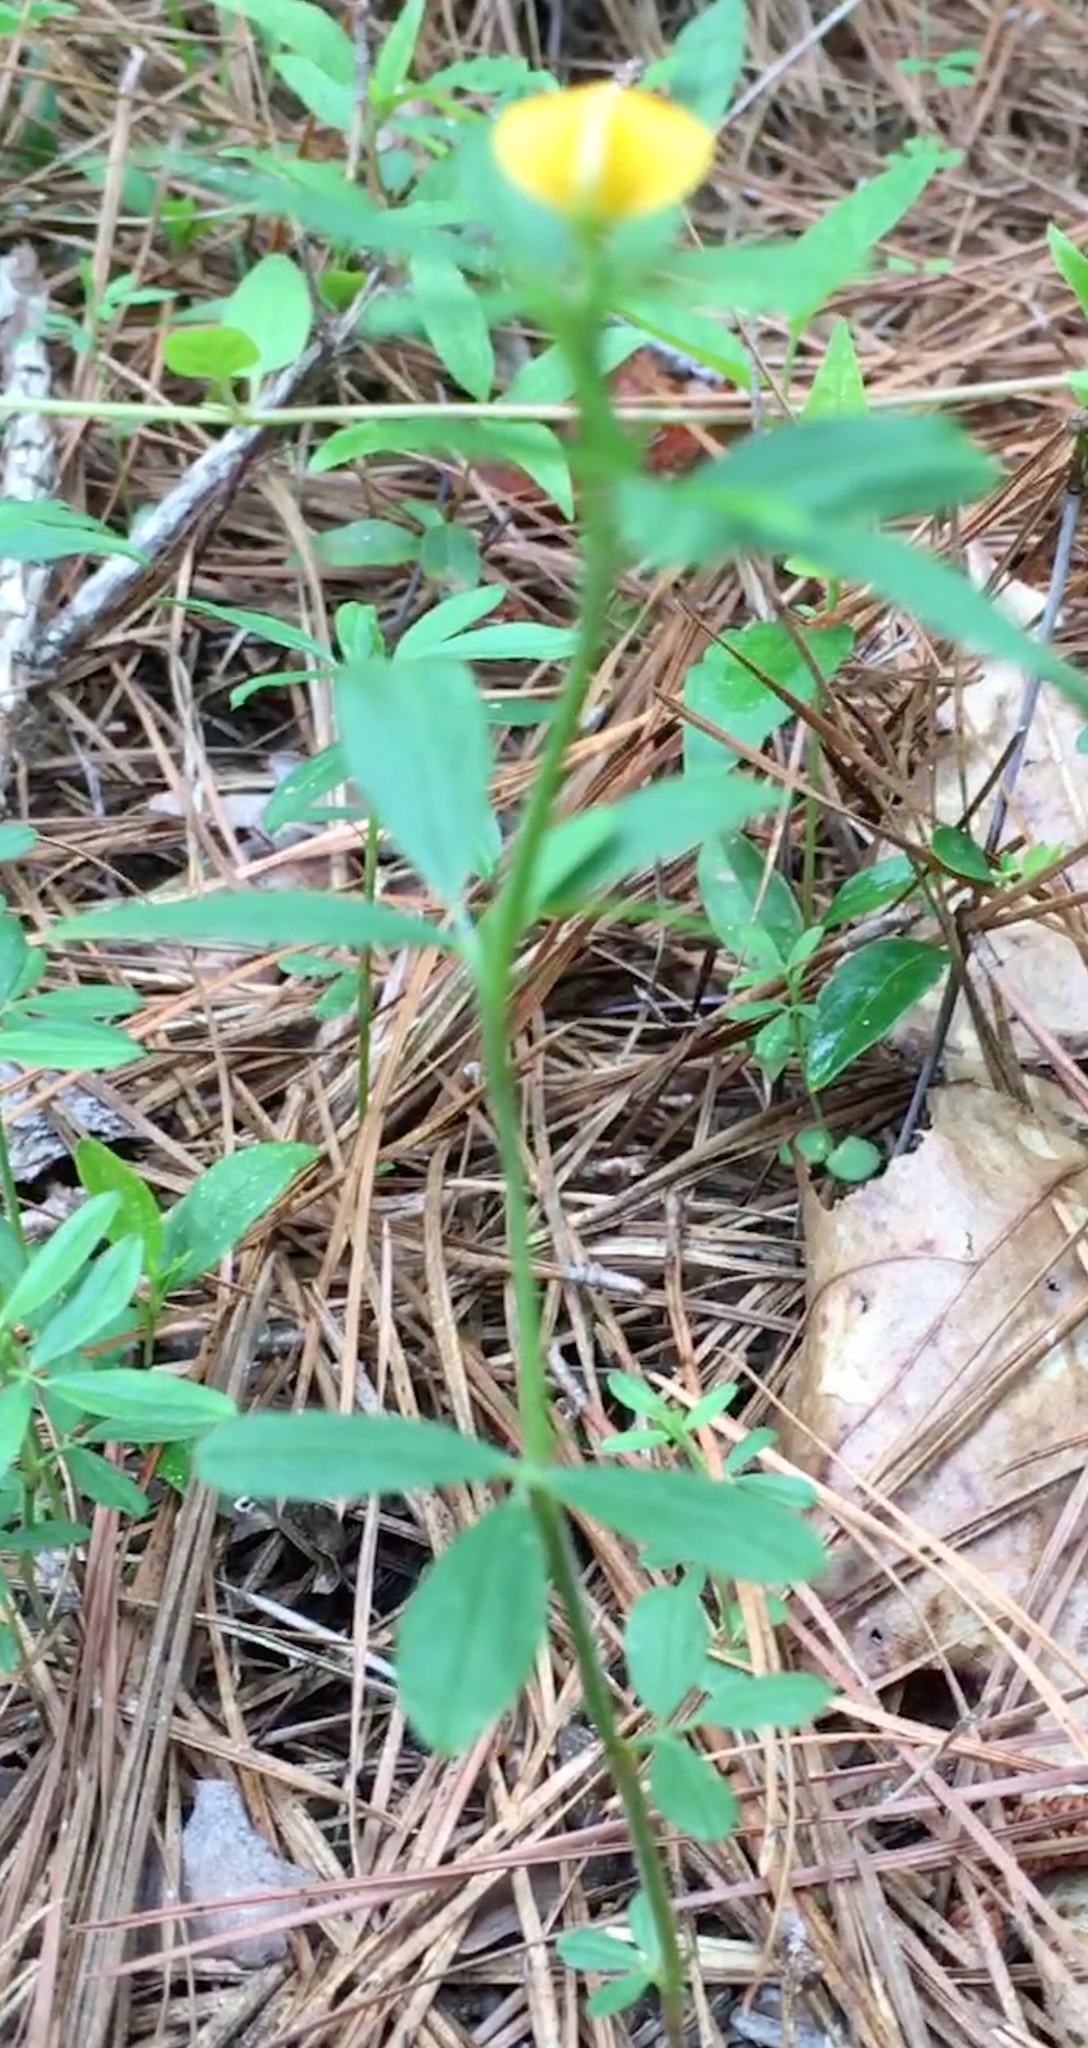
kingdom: Plantae
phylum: Tracheophyta
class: Magnoliopsida
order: Fabales
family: Fabaceae
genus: Stylosanthes
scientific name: Stylosanthes biflora
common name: Two-flower pencil-flower
